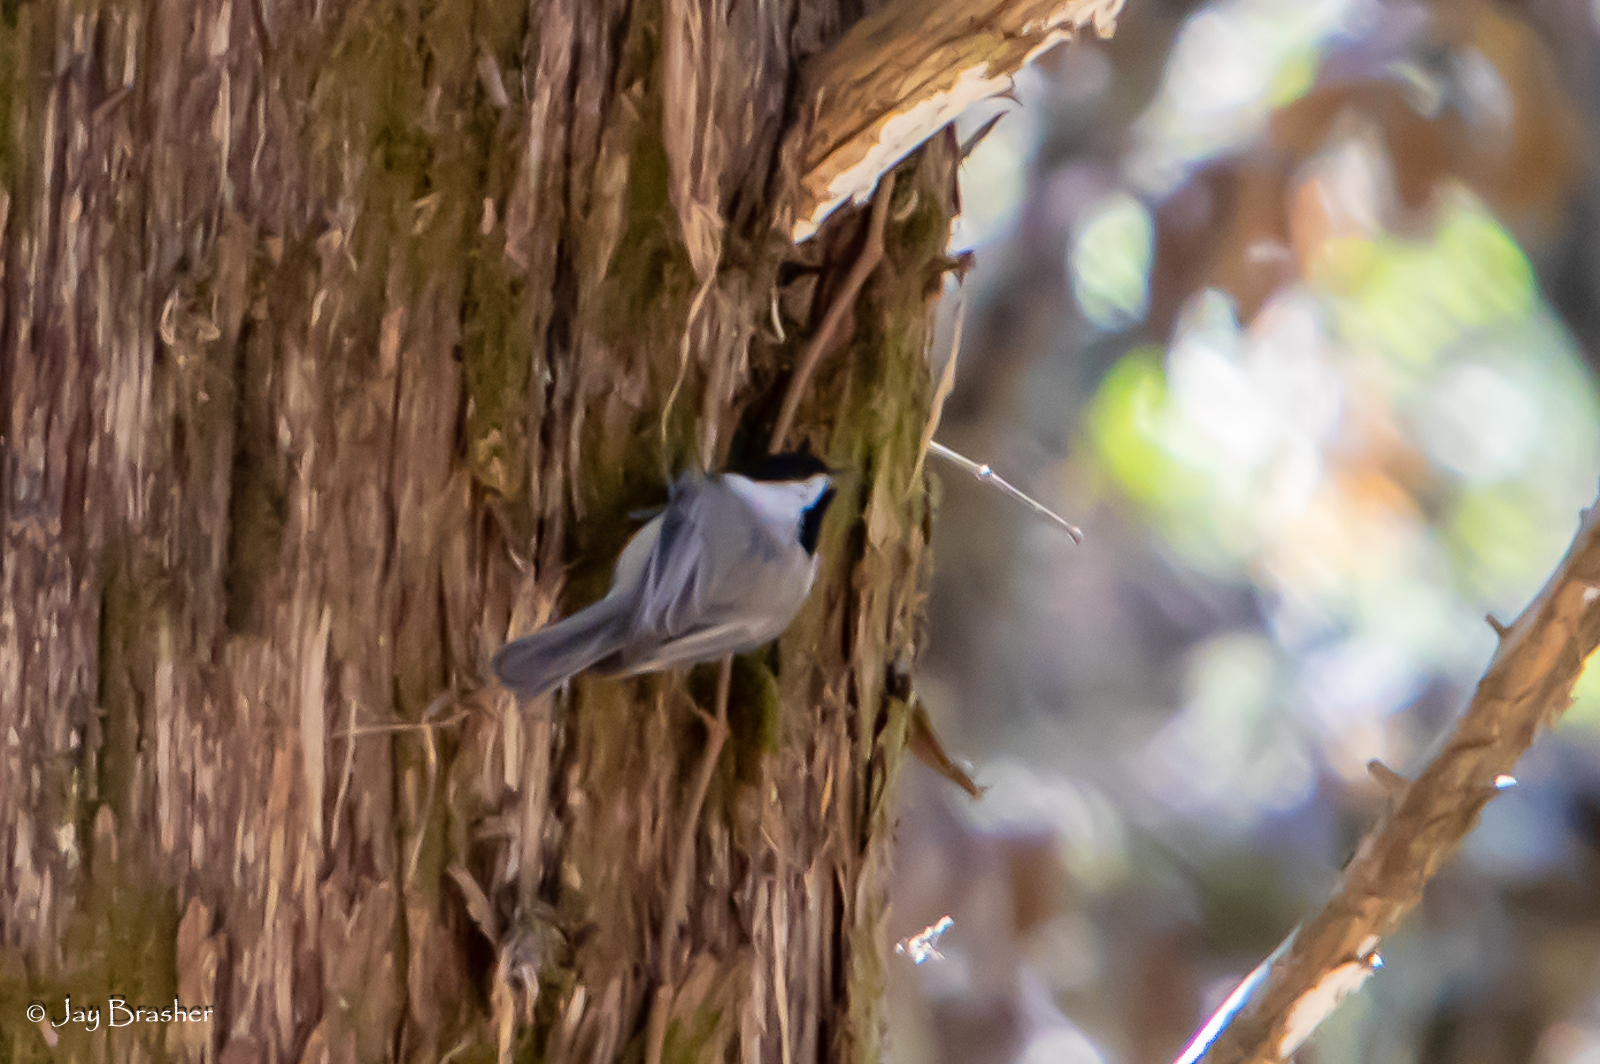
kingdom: Animalia
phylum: Chordata
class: Aves
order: Passeriformes
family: Paridae
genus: Poecile
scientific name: Poecile carolinensis
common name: Carolina chickadee
